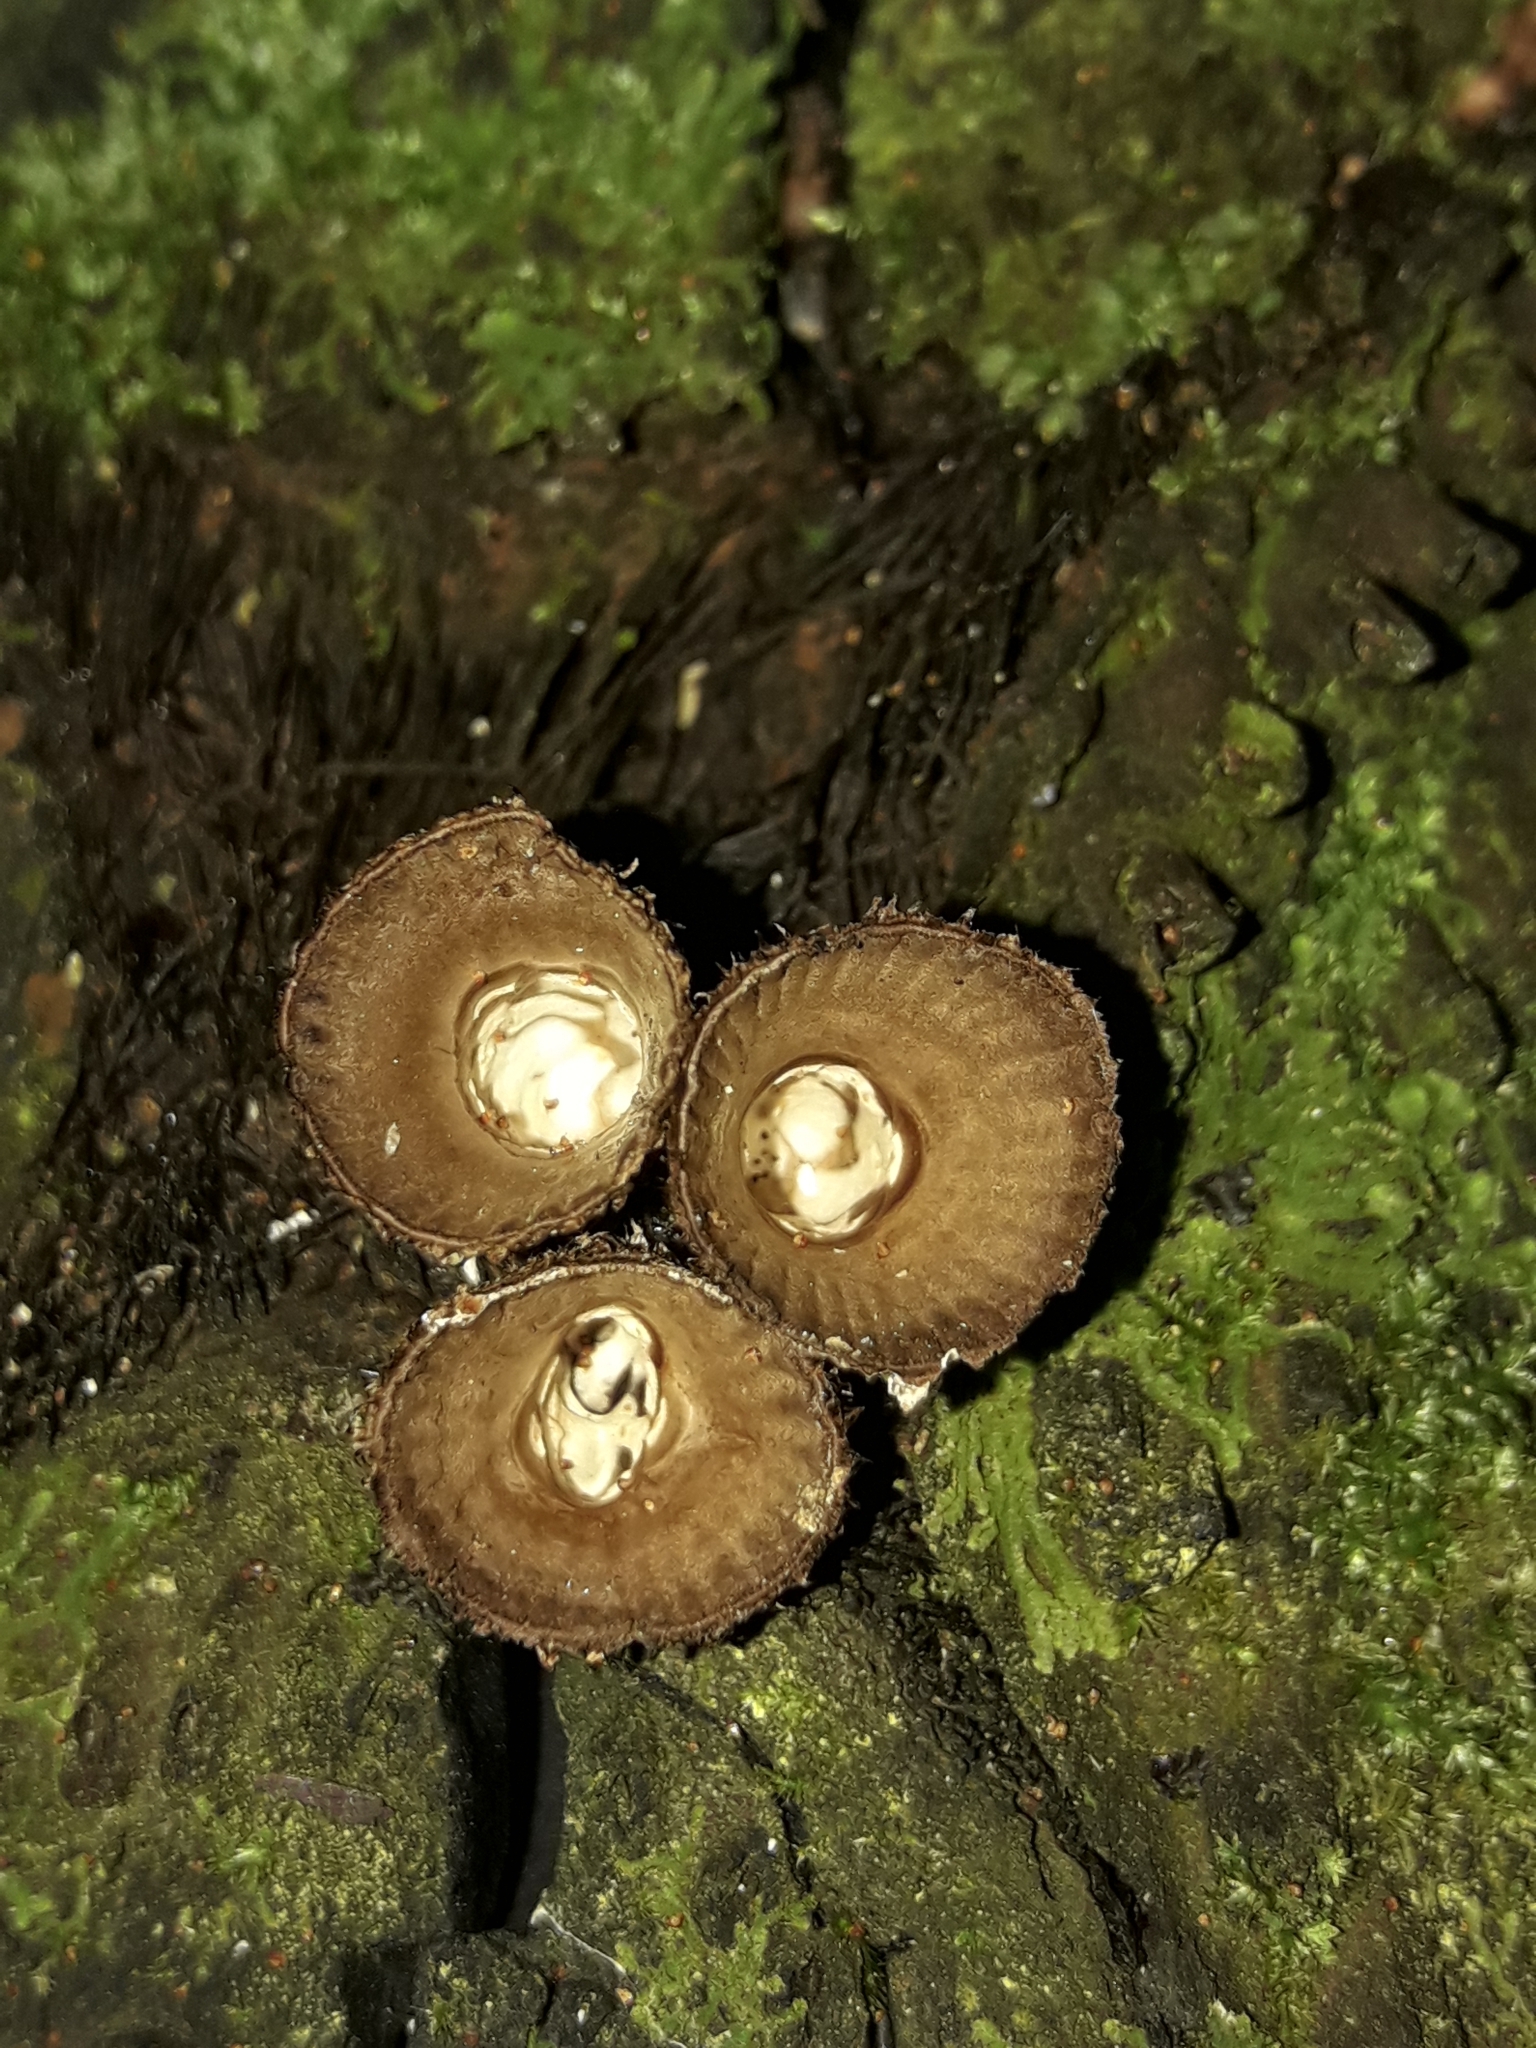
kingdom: Fungi
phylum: Basidiomycota
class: Agaricomycetes
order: Agaricales
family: Agaricaceae
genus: Cyathus
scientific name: Cyathus striatus
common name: Fluted bird's nest
